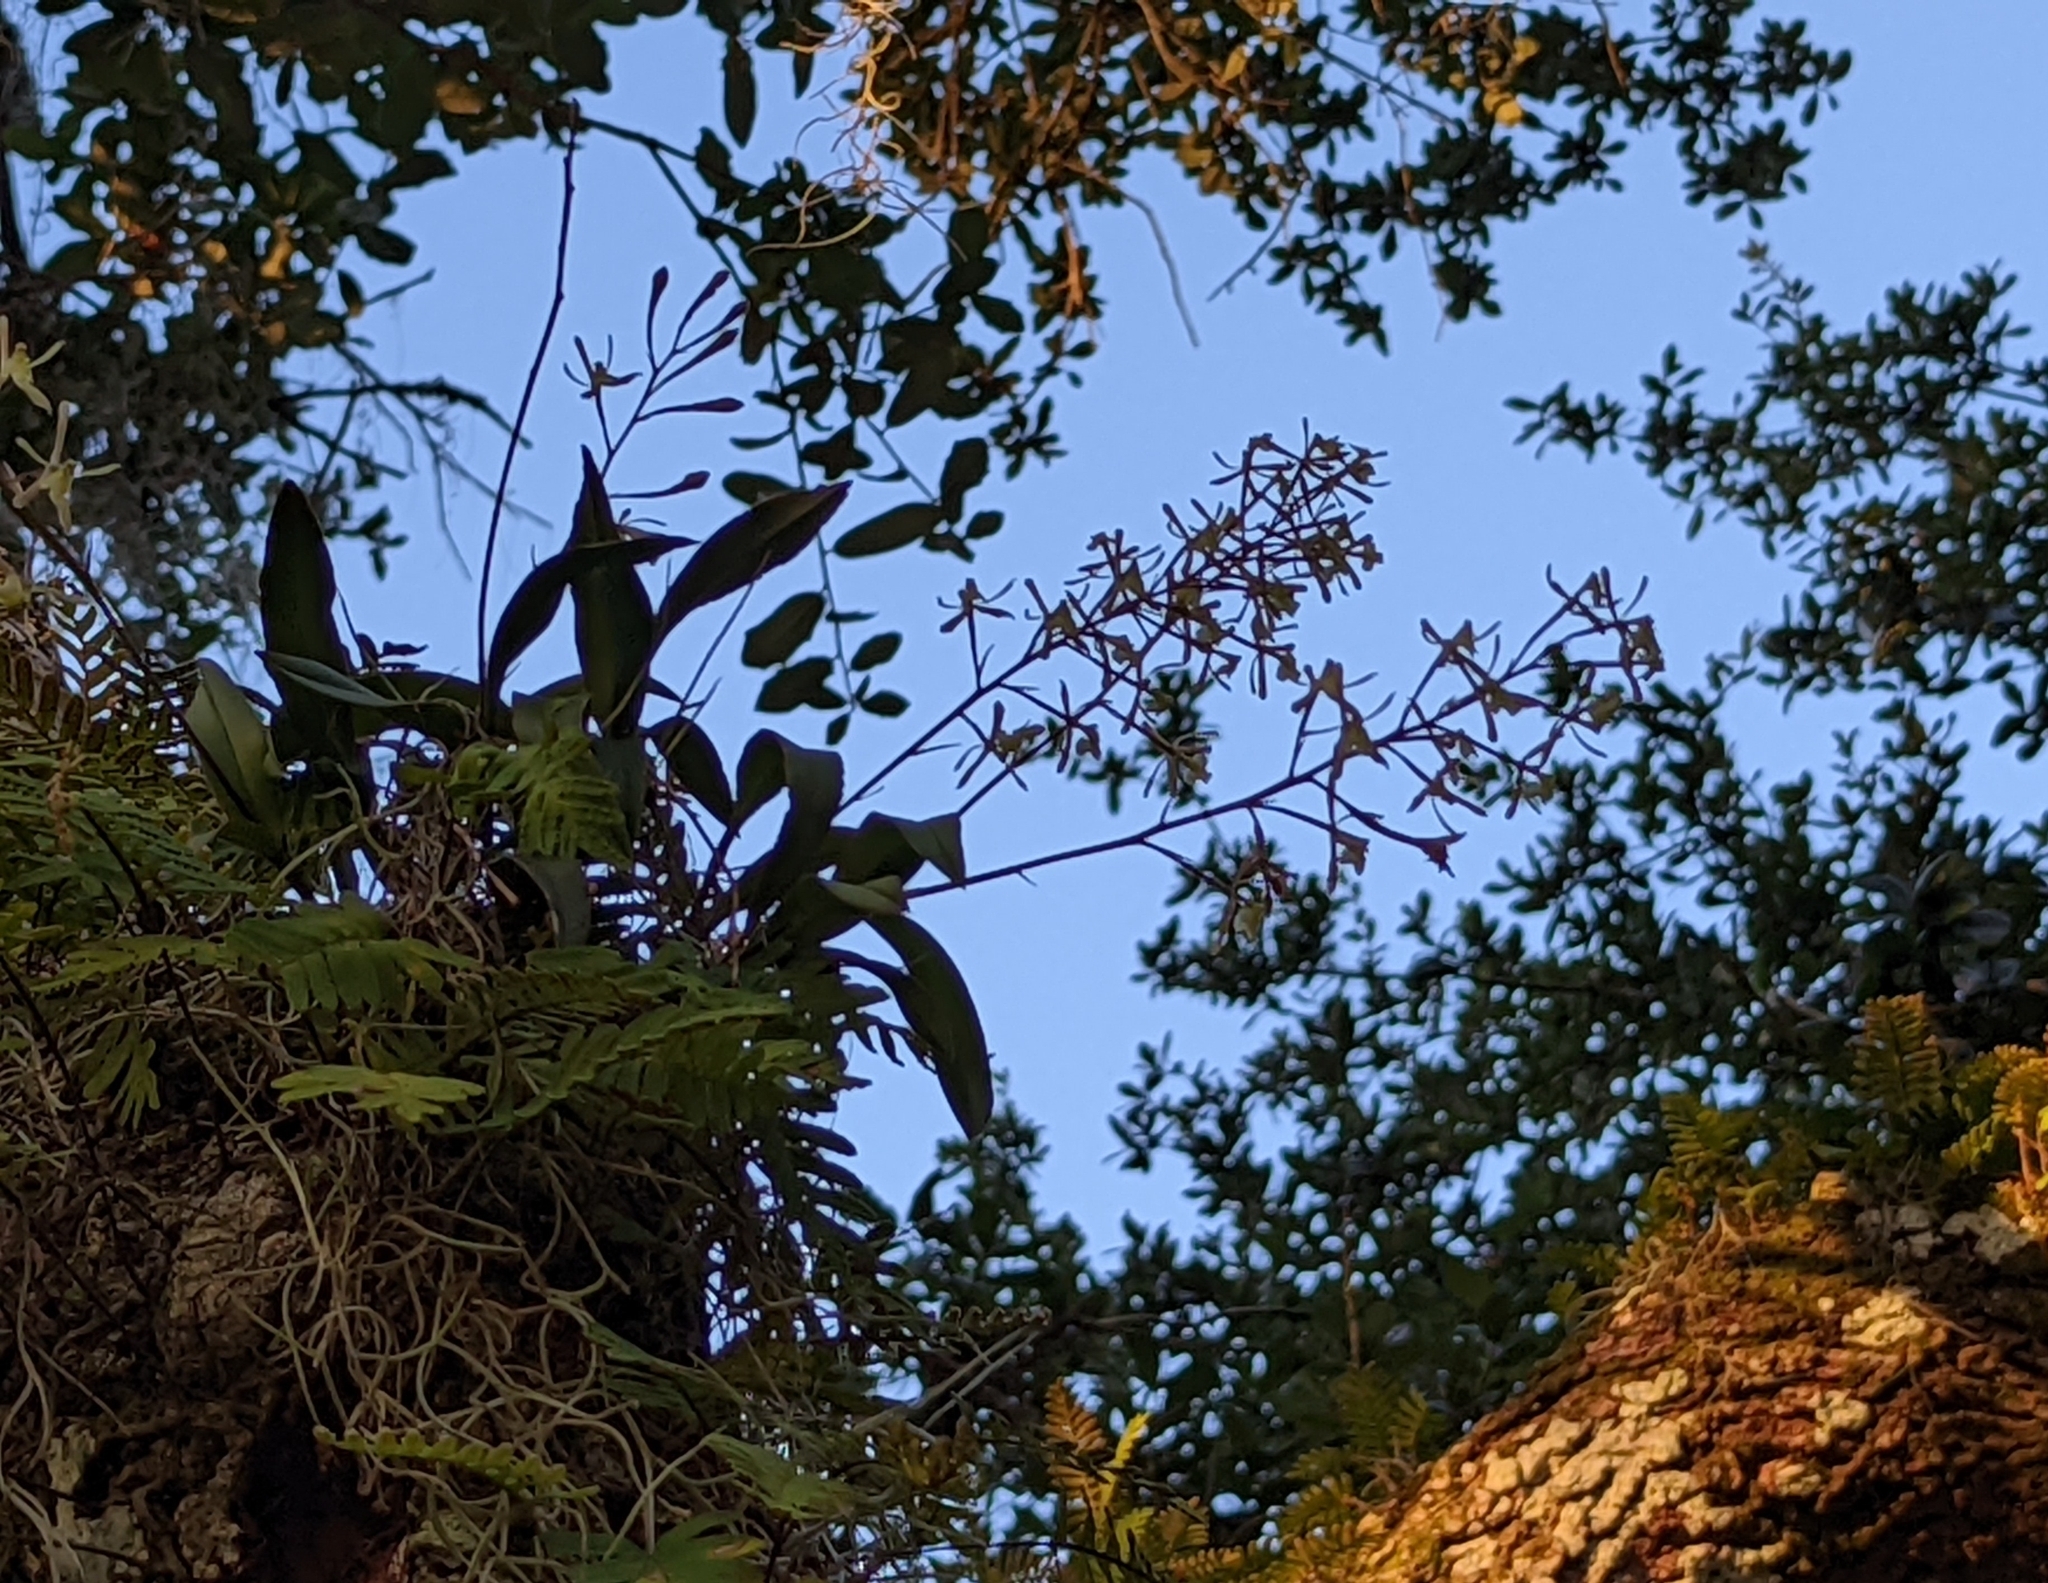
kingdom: Plantae
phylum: Tracheophyta
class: Liliopsida
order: Asparagales
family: Orchidaceae
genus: Epidendrum
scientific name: Epidendrum conopseum
